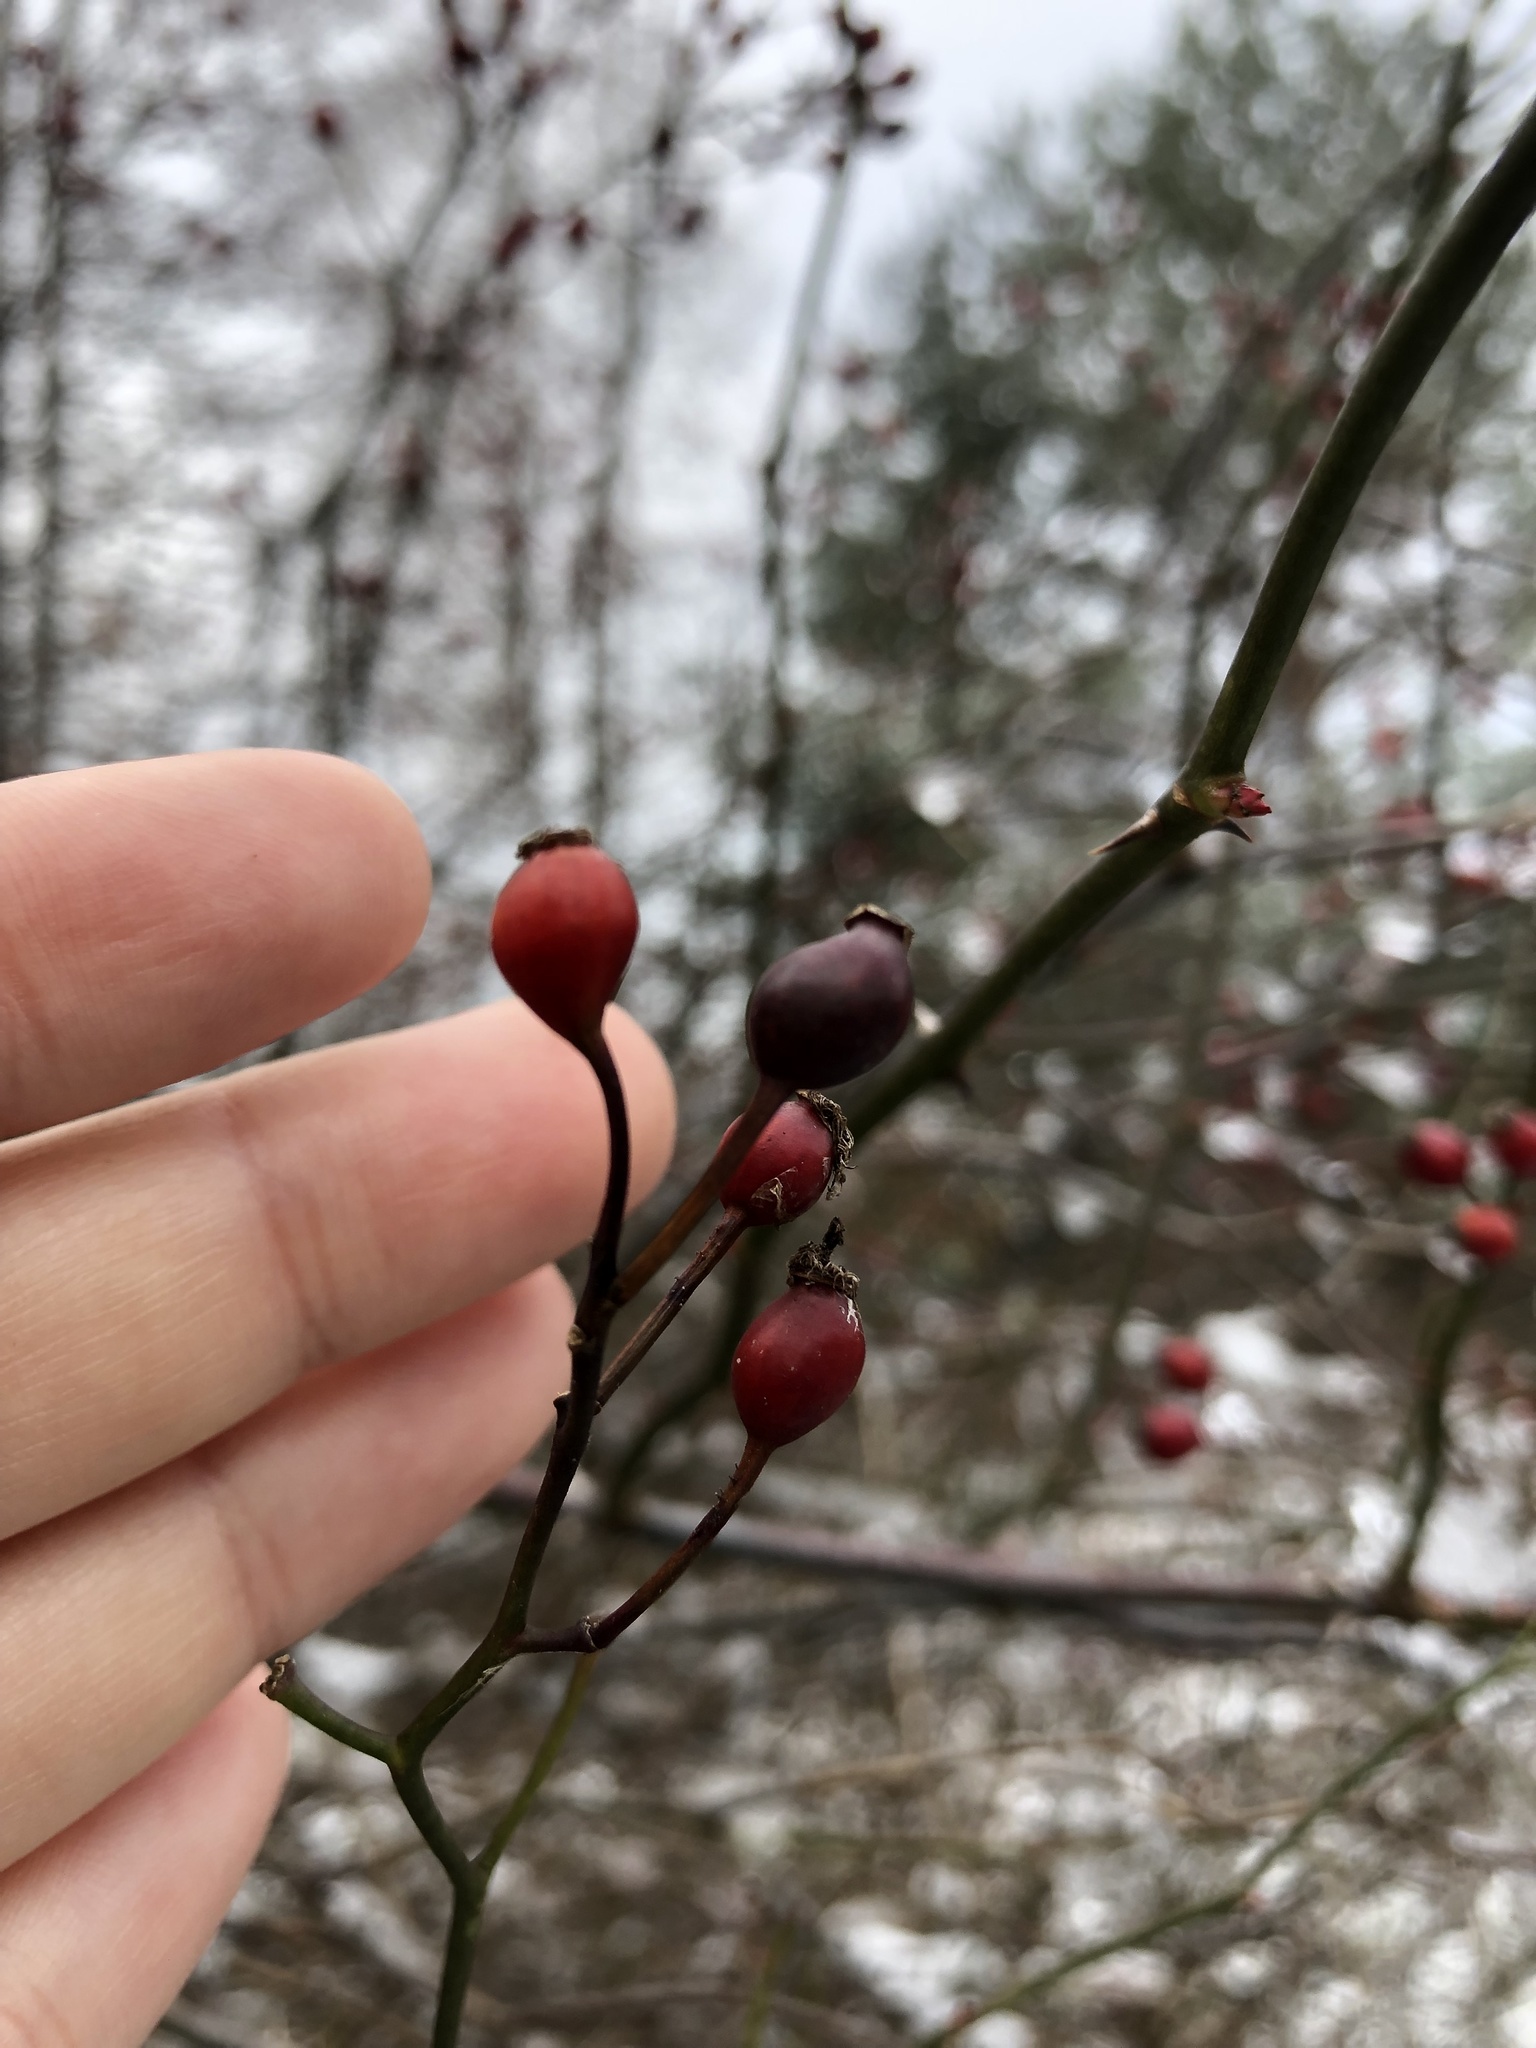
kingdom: Plantae
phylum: Tracheophyta
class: Magnoliopsida
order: Rosales
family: Rosaceae
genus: Rosa
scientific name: Rosa multiflora
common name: Multiflora rose
